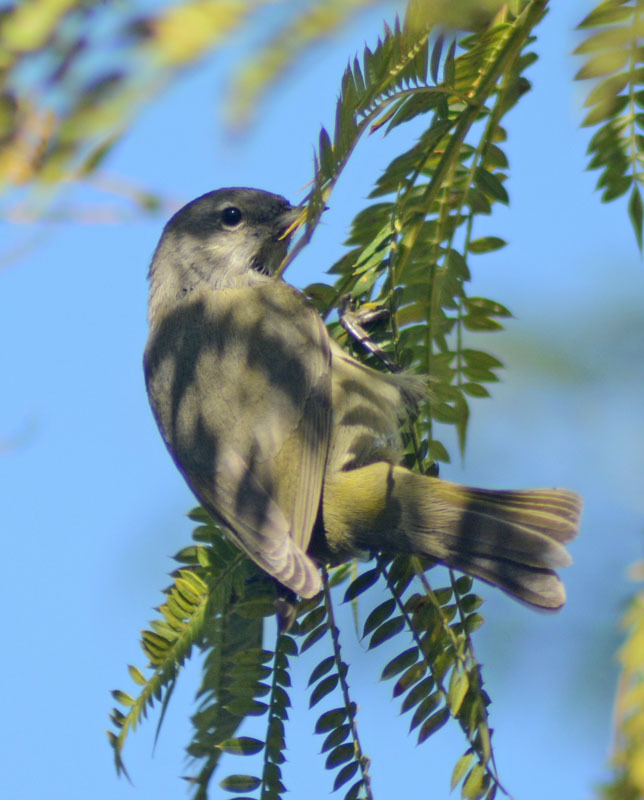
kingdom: Animalia
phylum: Chordata
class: Aves
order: Passeriformes
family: Parulidae
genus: Leiothlypis
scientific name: Leiothlypis celata
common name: Orange-crowned warbler
